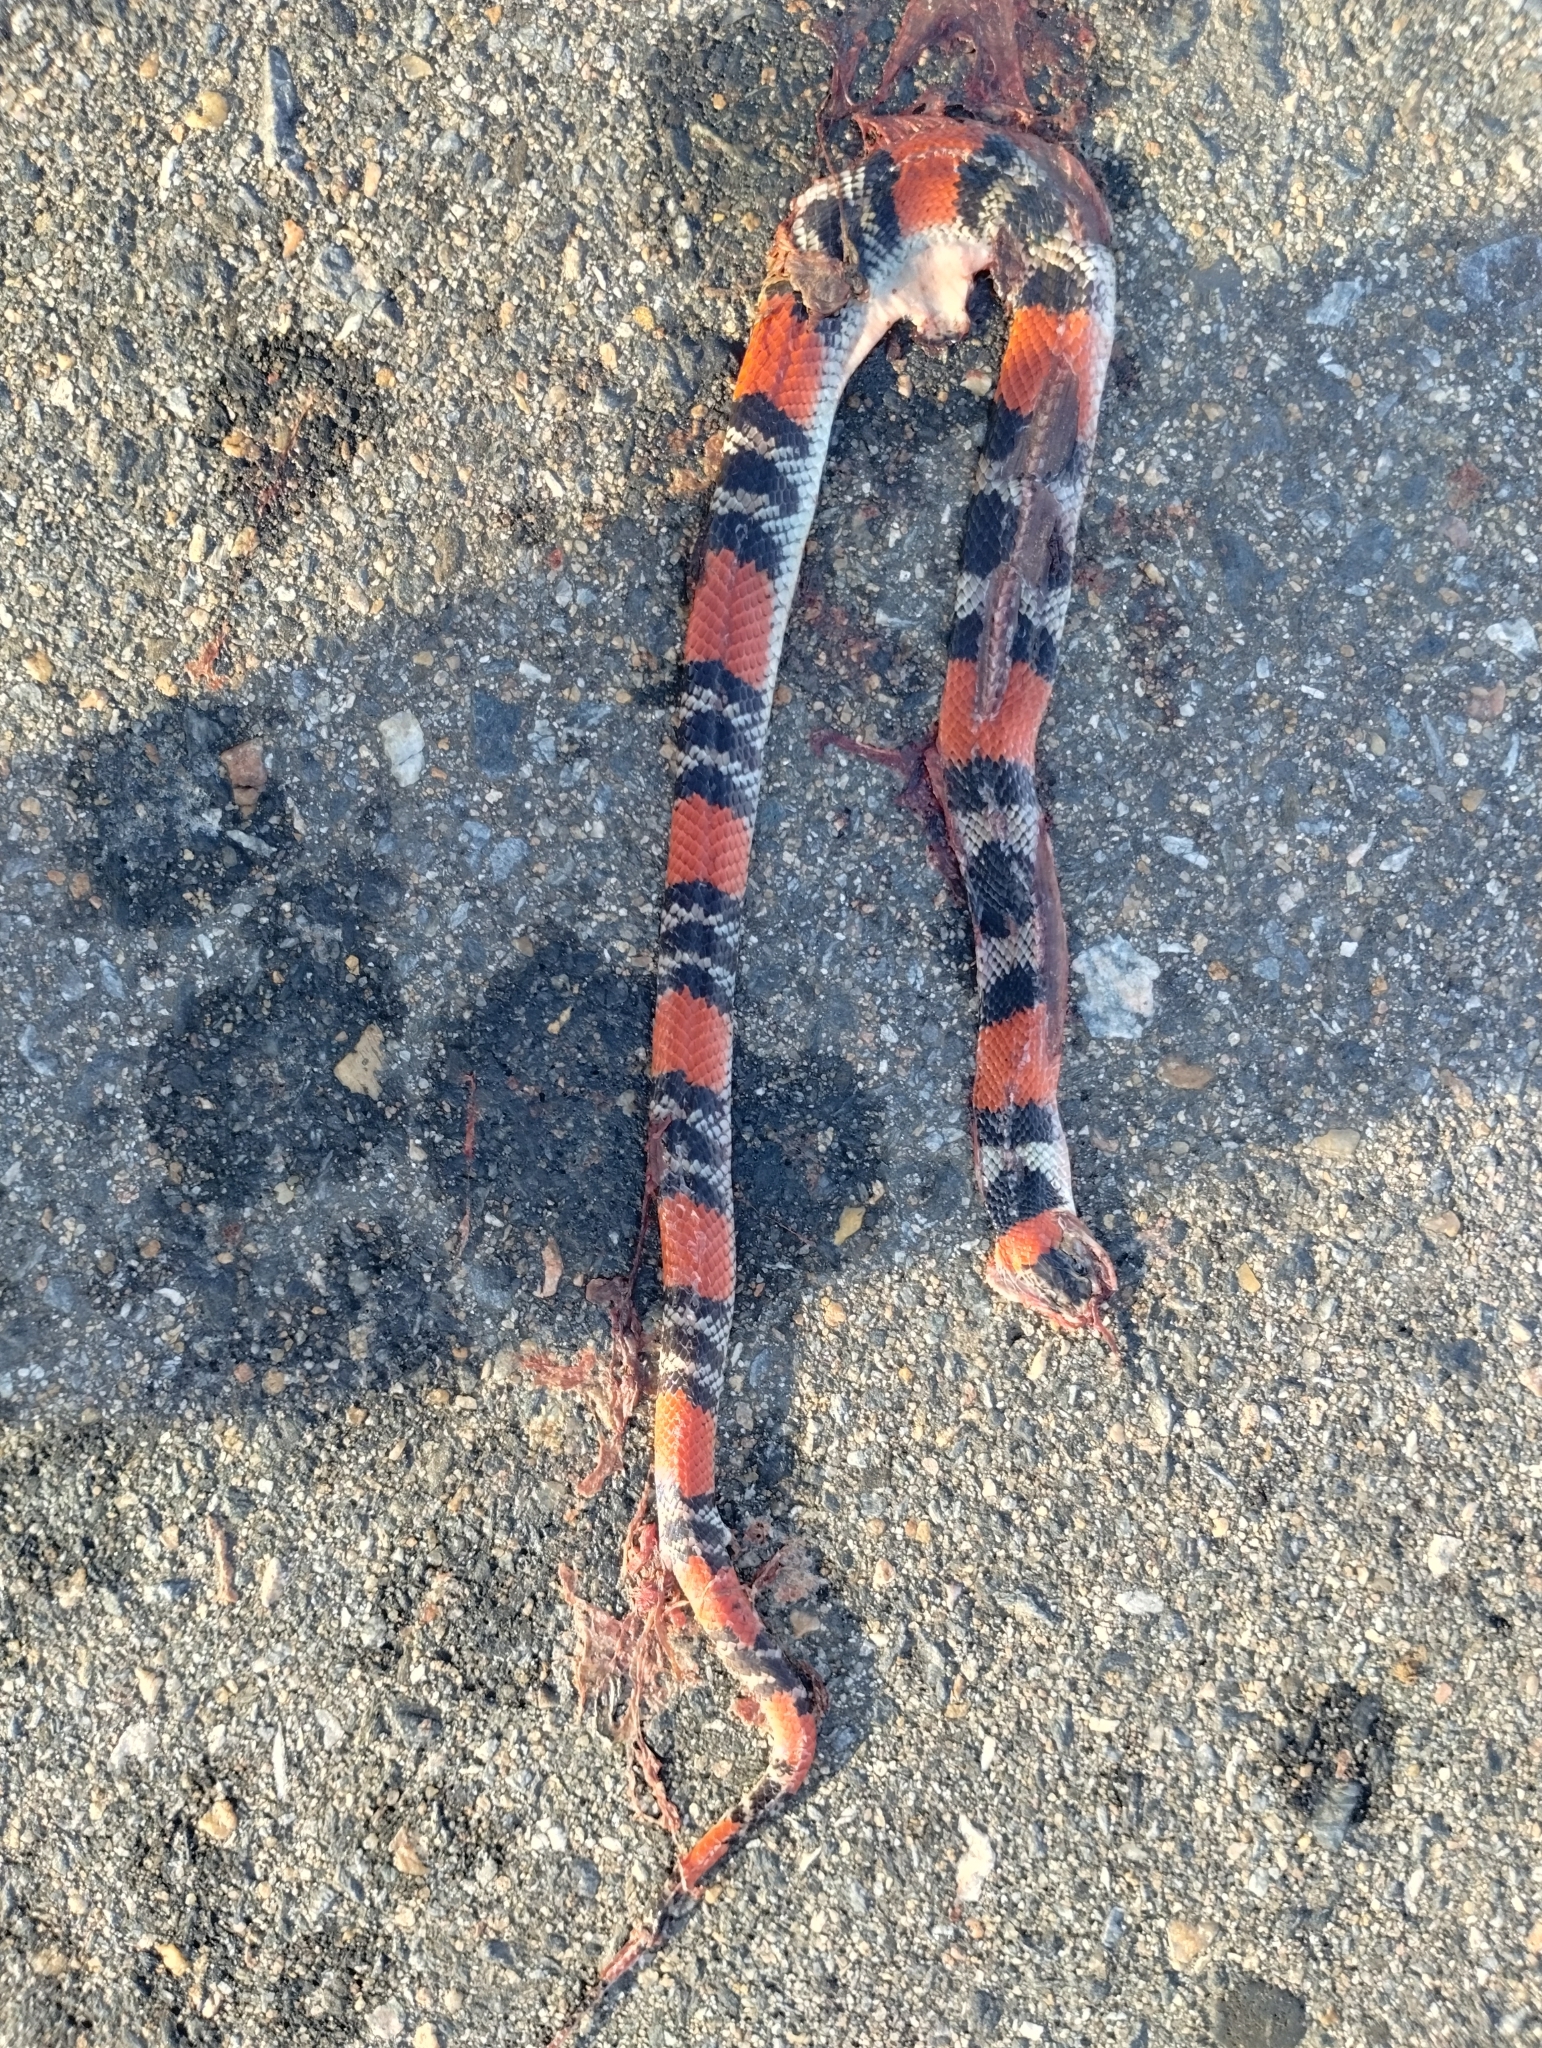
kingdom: Animalia
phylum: Chordata
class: Squamata
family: Colubridae
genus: Oxyrhopus
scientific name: Oxyrhopus trigeminus
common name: Brazilian false coral snake
